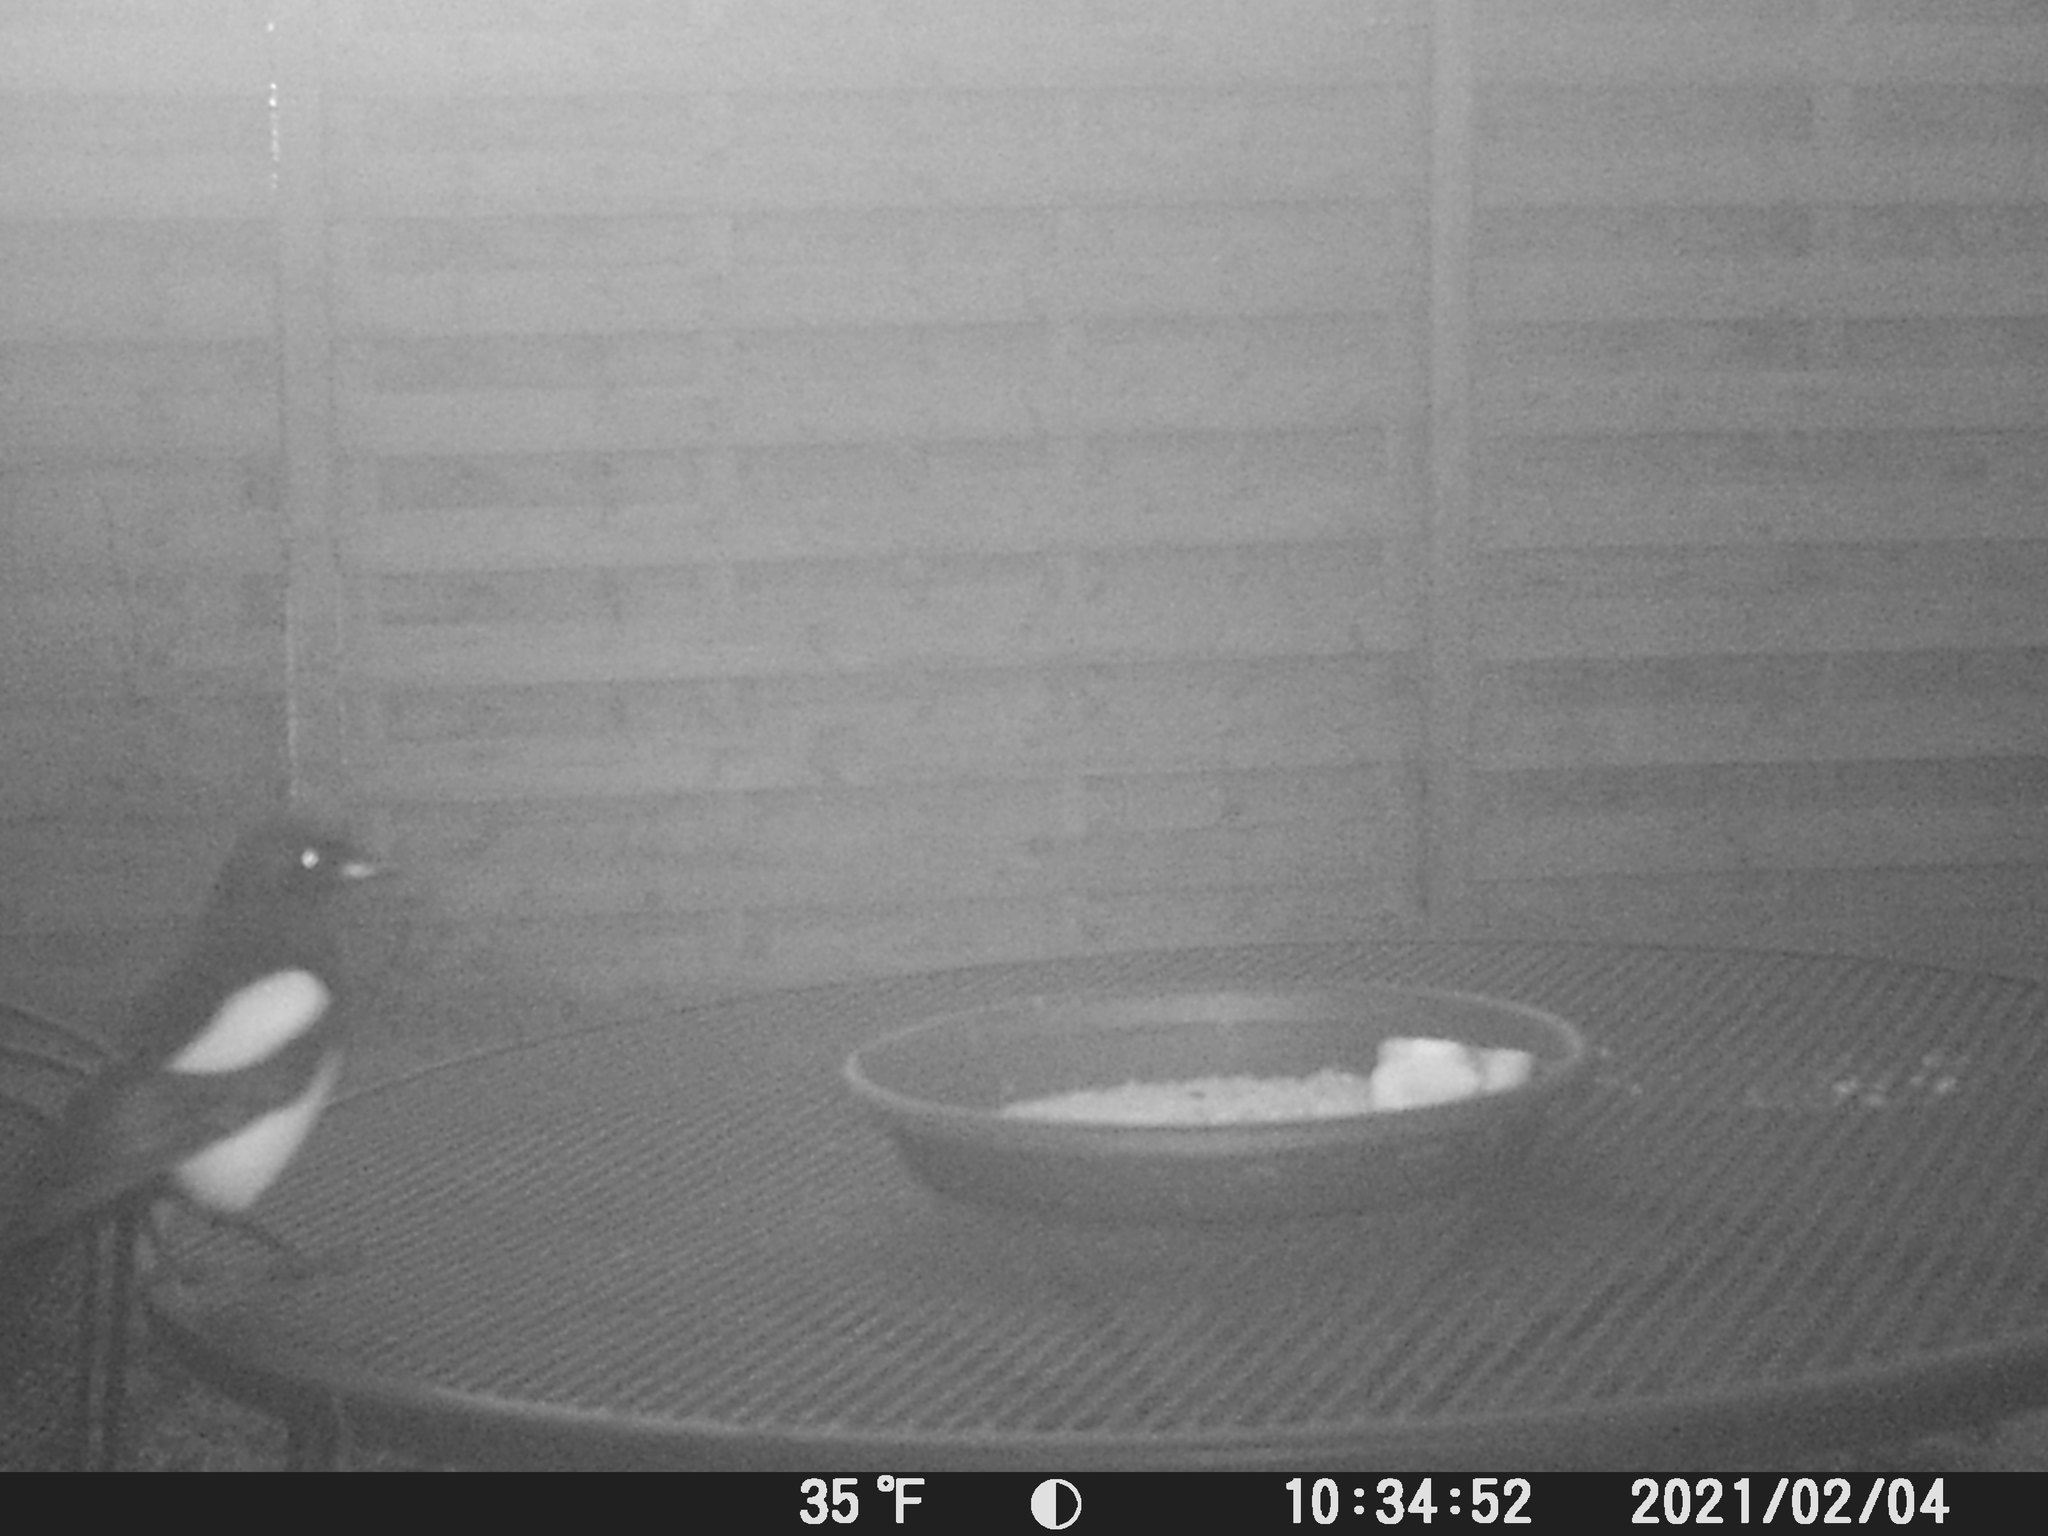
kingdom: Animalia
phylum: Chordata
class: Aves
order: Passeriformes
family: Corvidae
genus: Pica
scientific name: Pica pica
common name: Eurasian magpie
